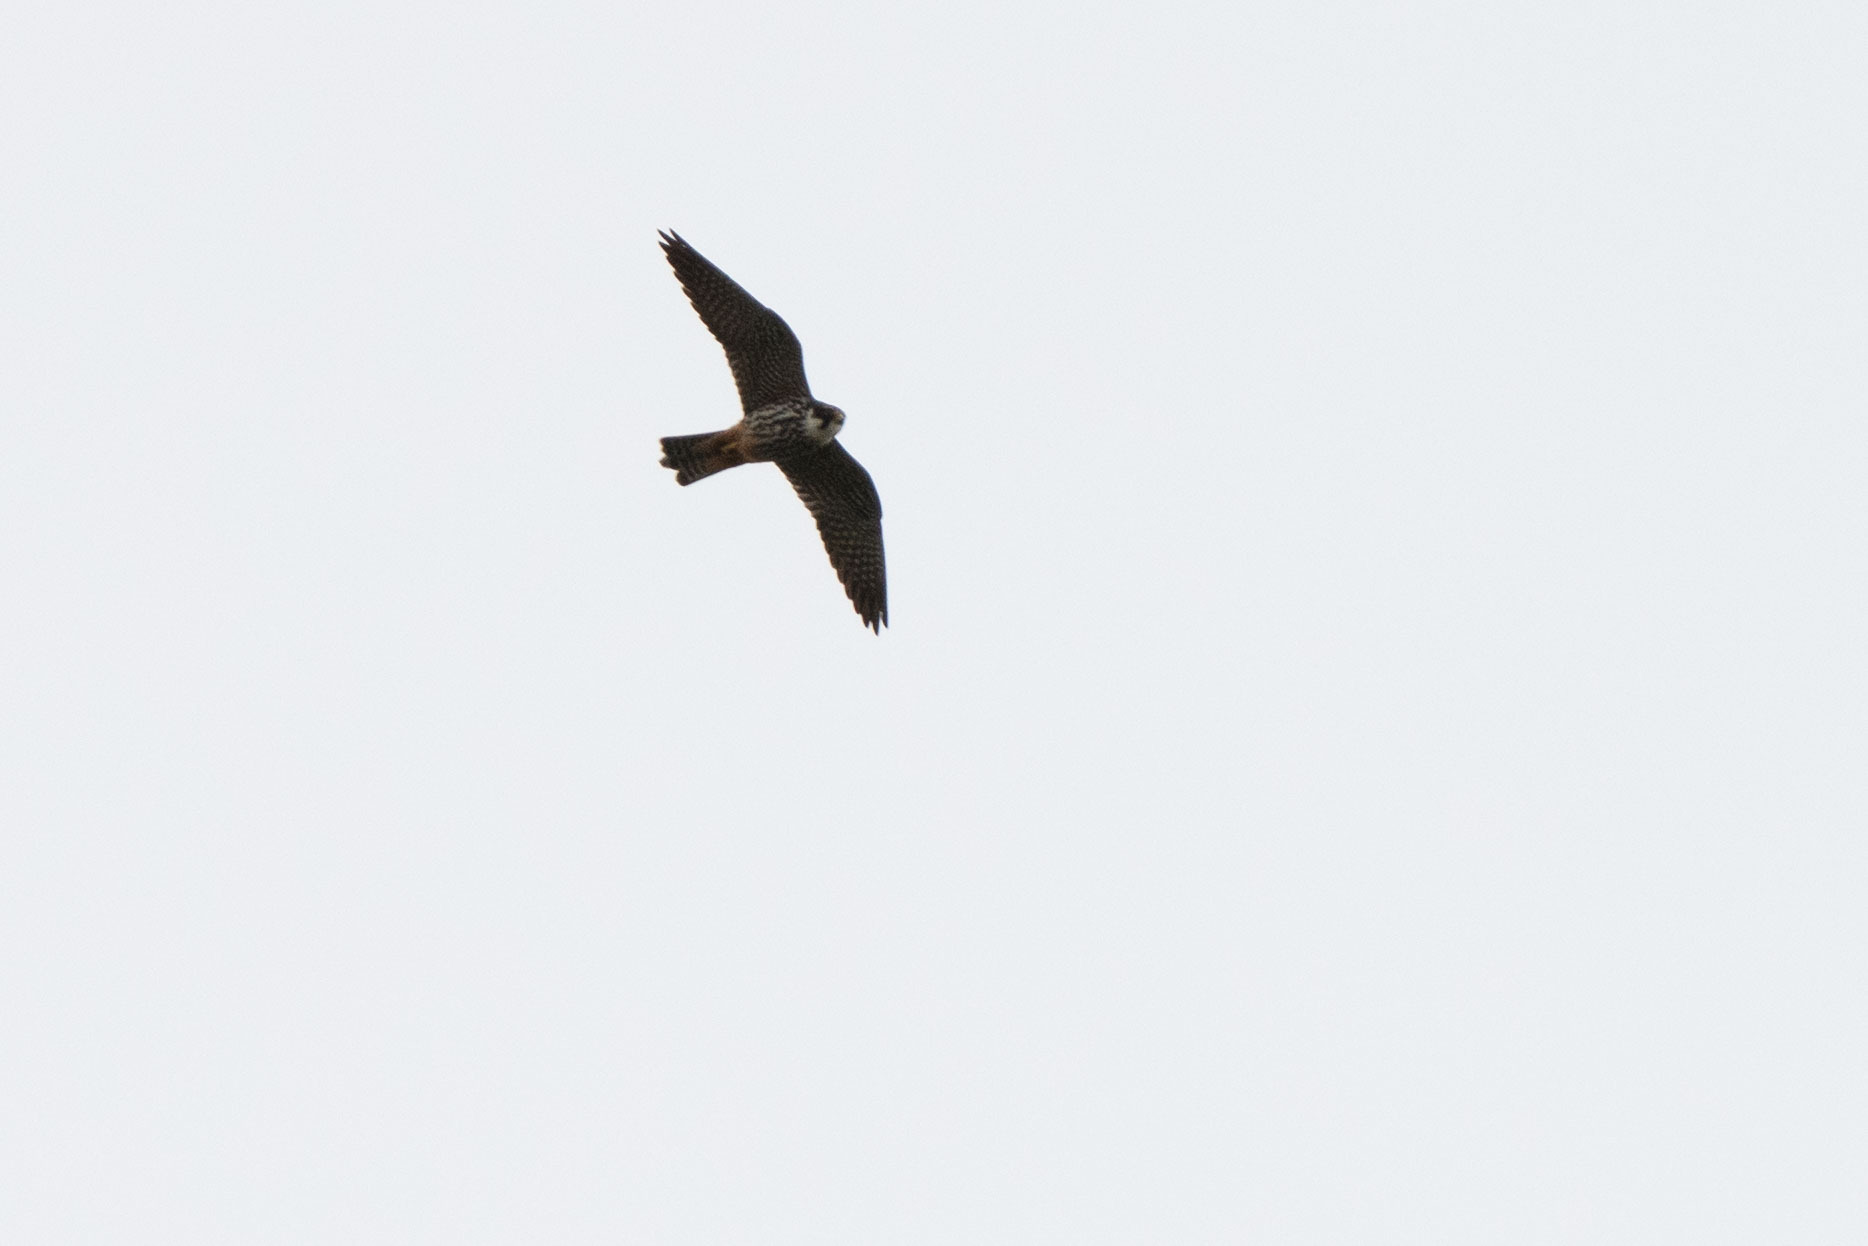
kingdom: Animalia
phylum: Chordata
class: Aves
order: Falconiformes
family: Falconidae
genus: Falco
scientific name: Falco subbuteo
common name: Eurasian hobby
